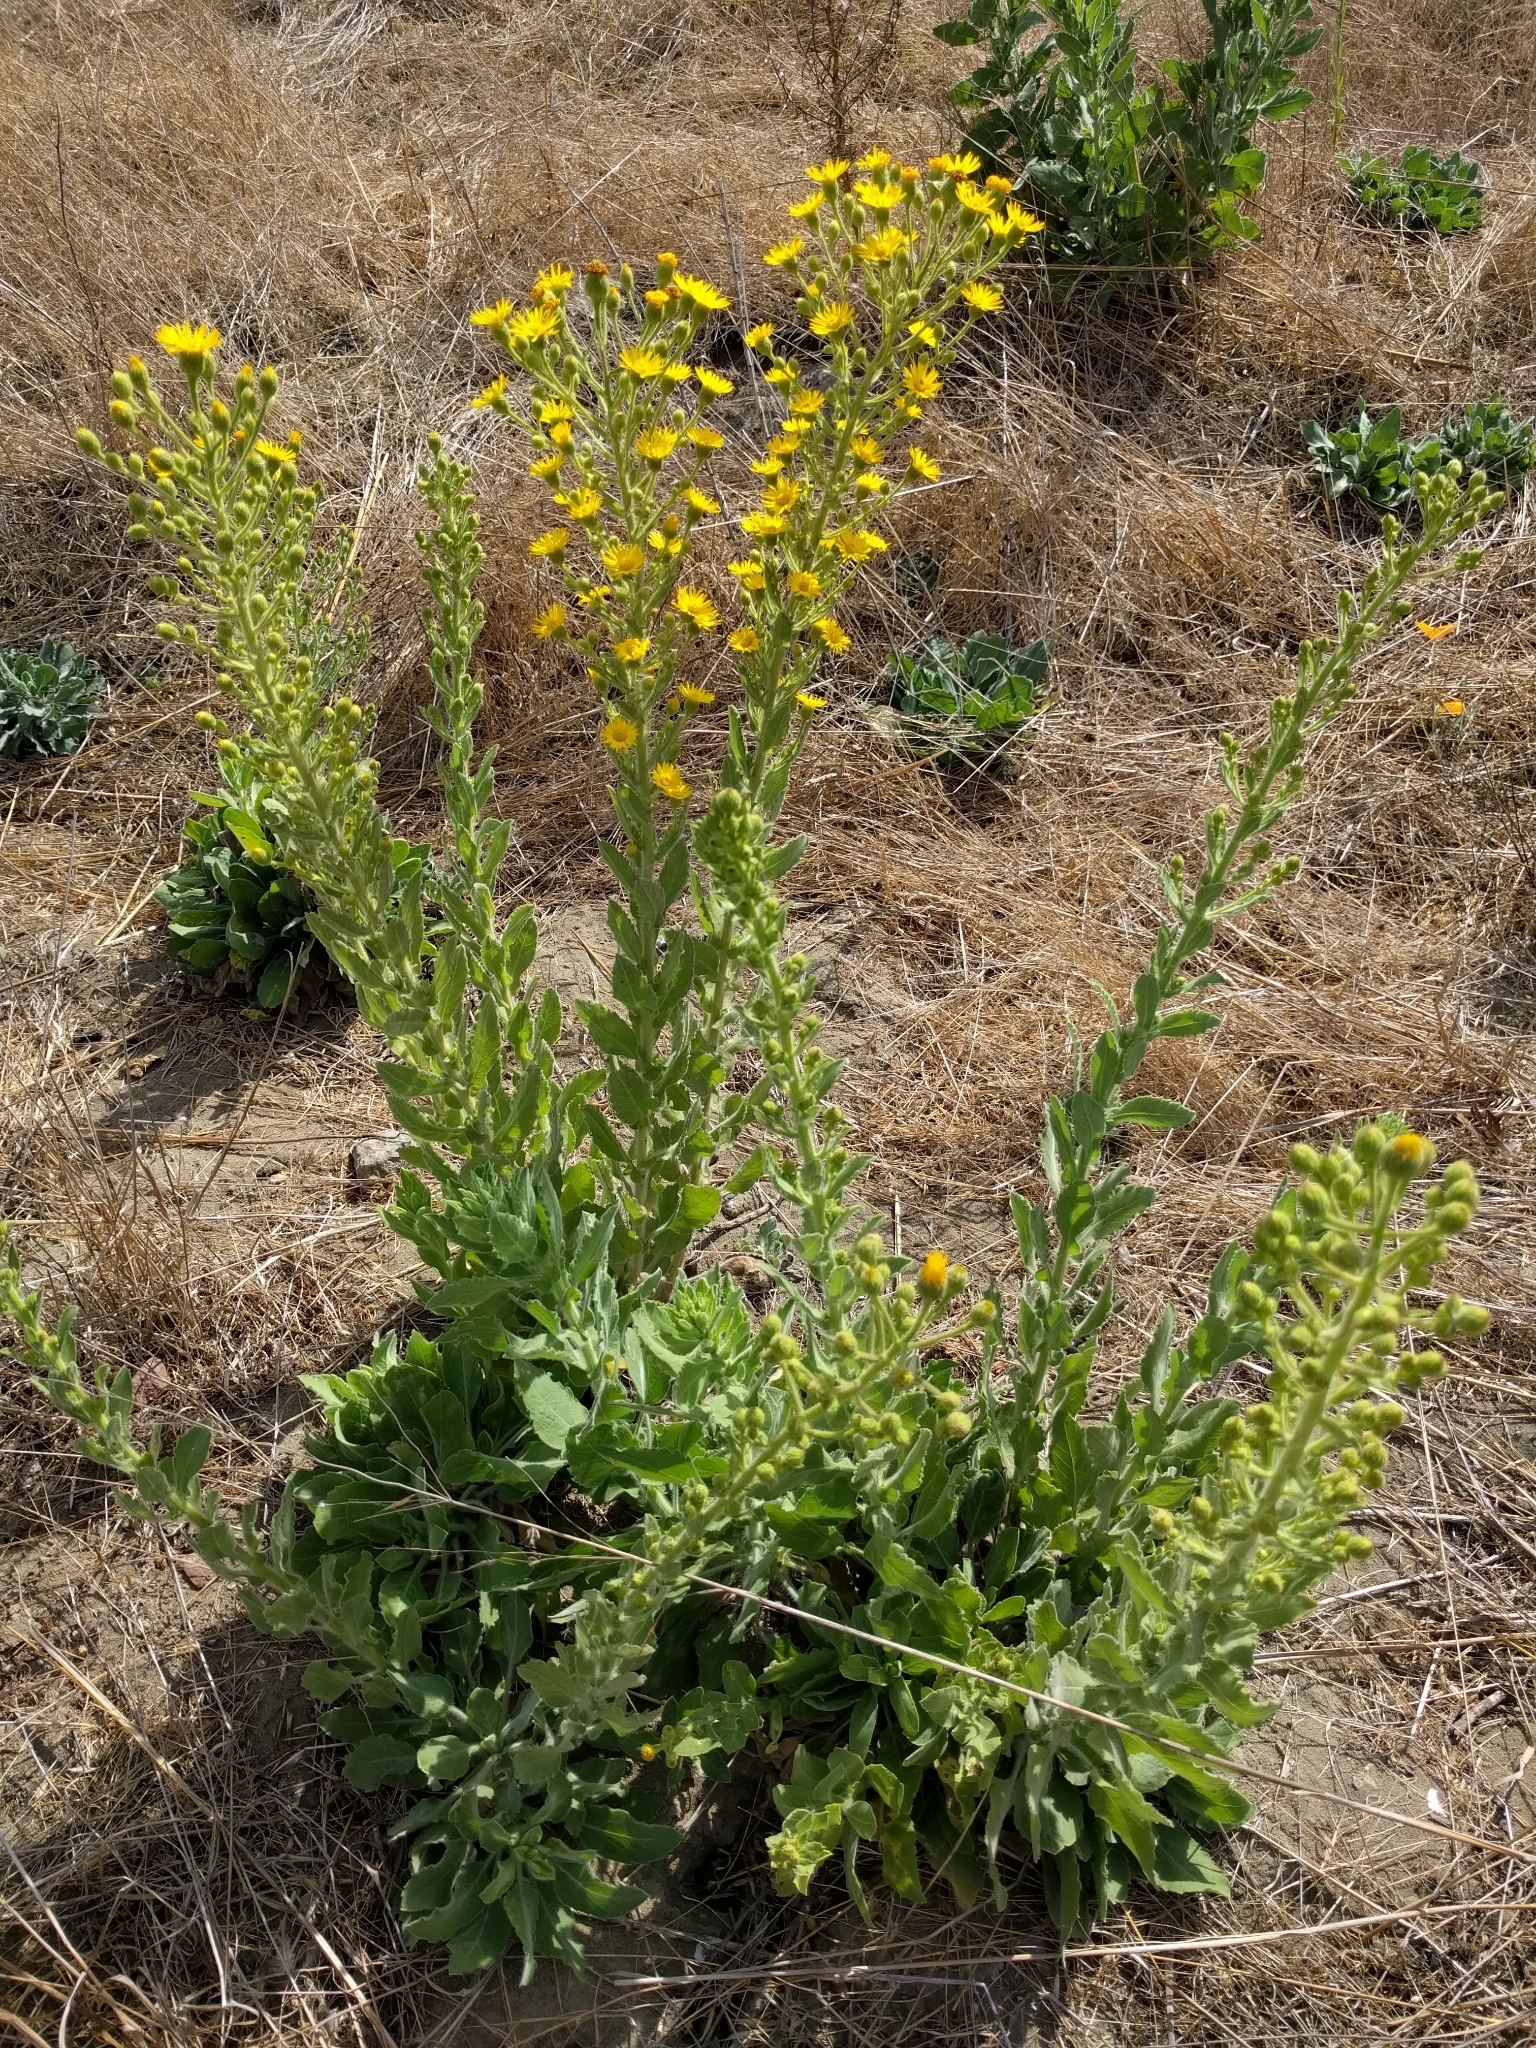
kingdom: Plantae
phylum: Tracheophyta
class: Magnoliopsida
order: Asterales
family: Asteraceae
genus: Heterotheca
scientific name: Heterotheca grandiflora
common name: Telegraphweed
